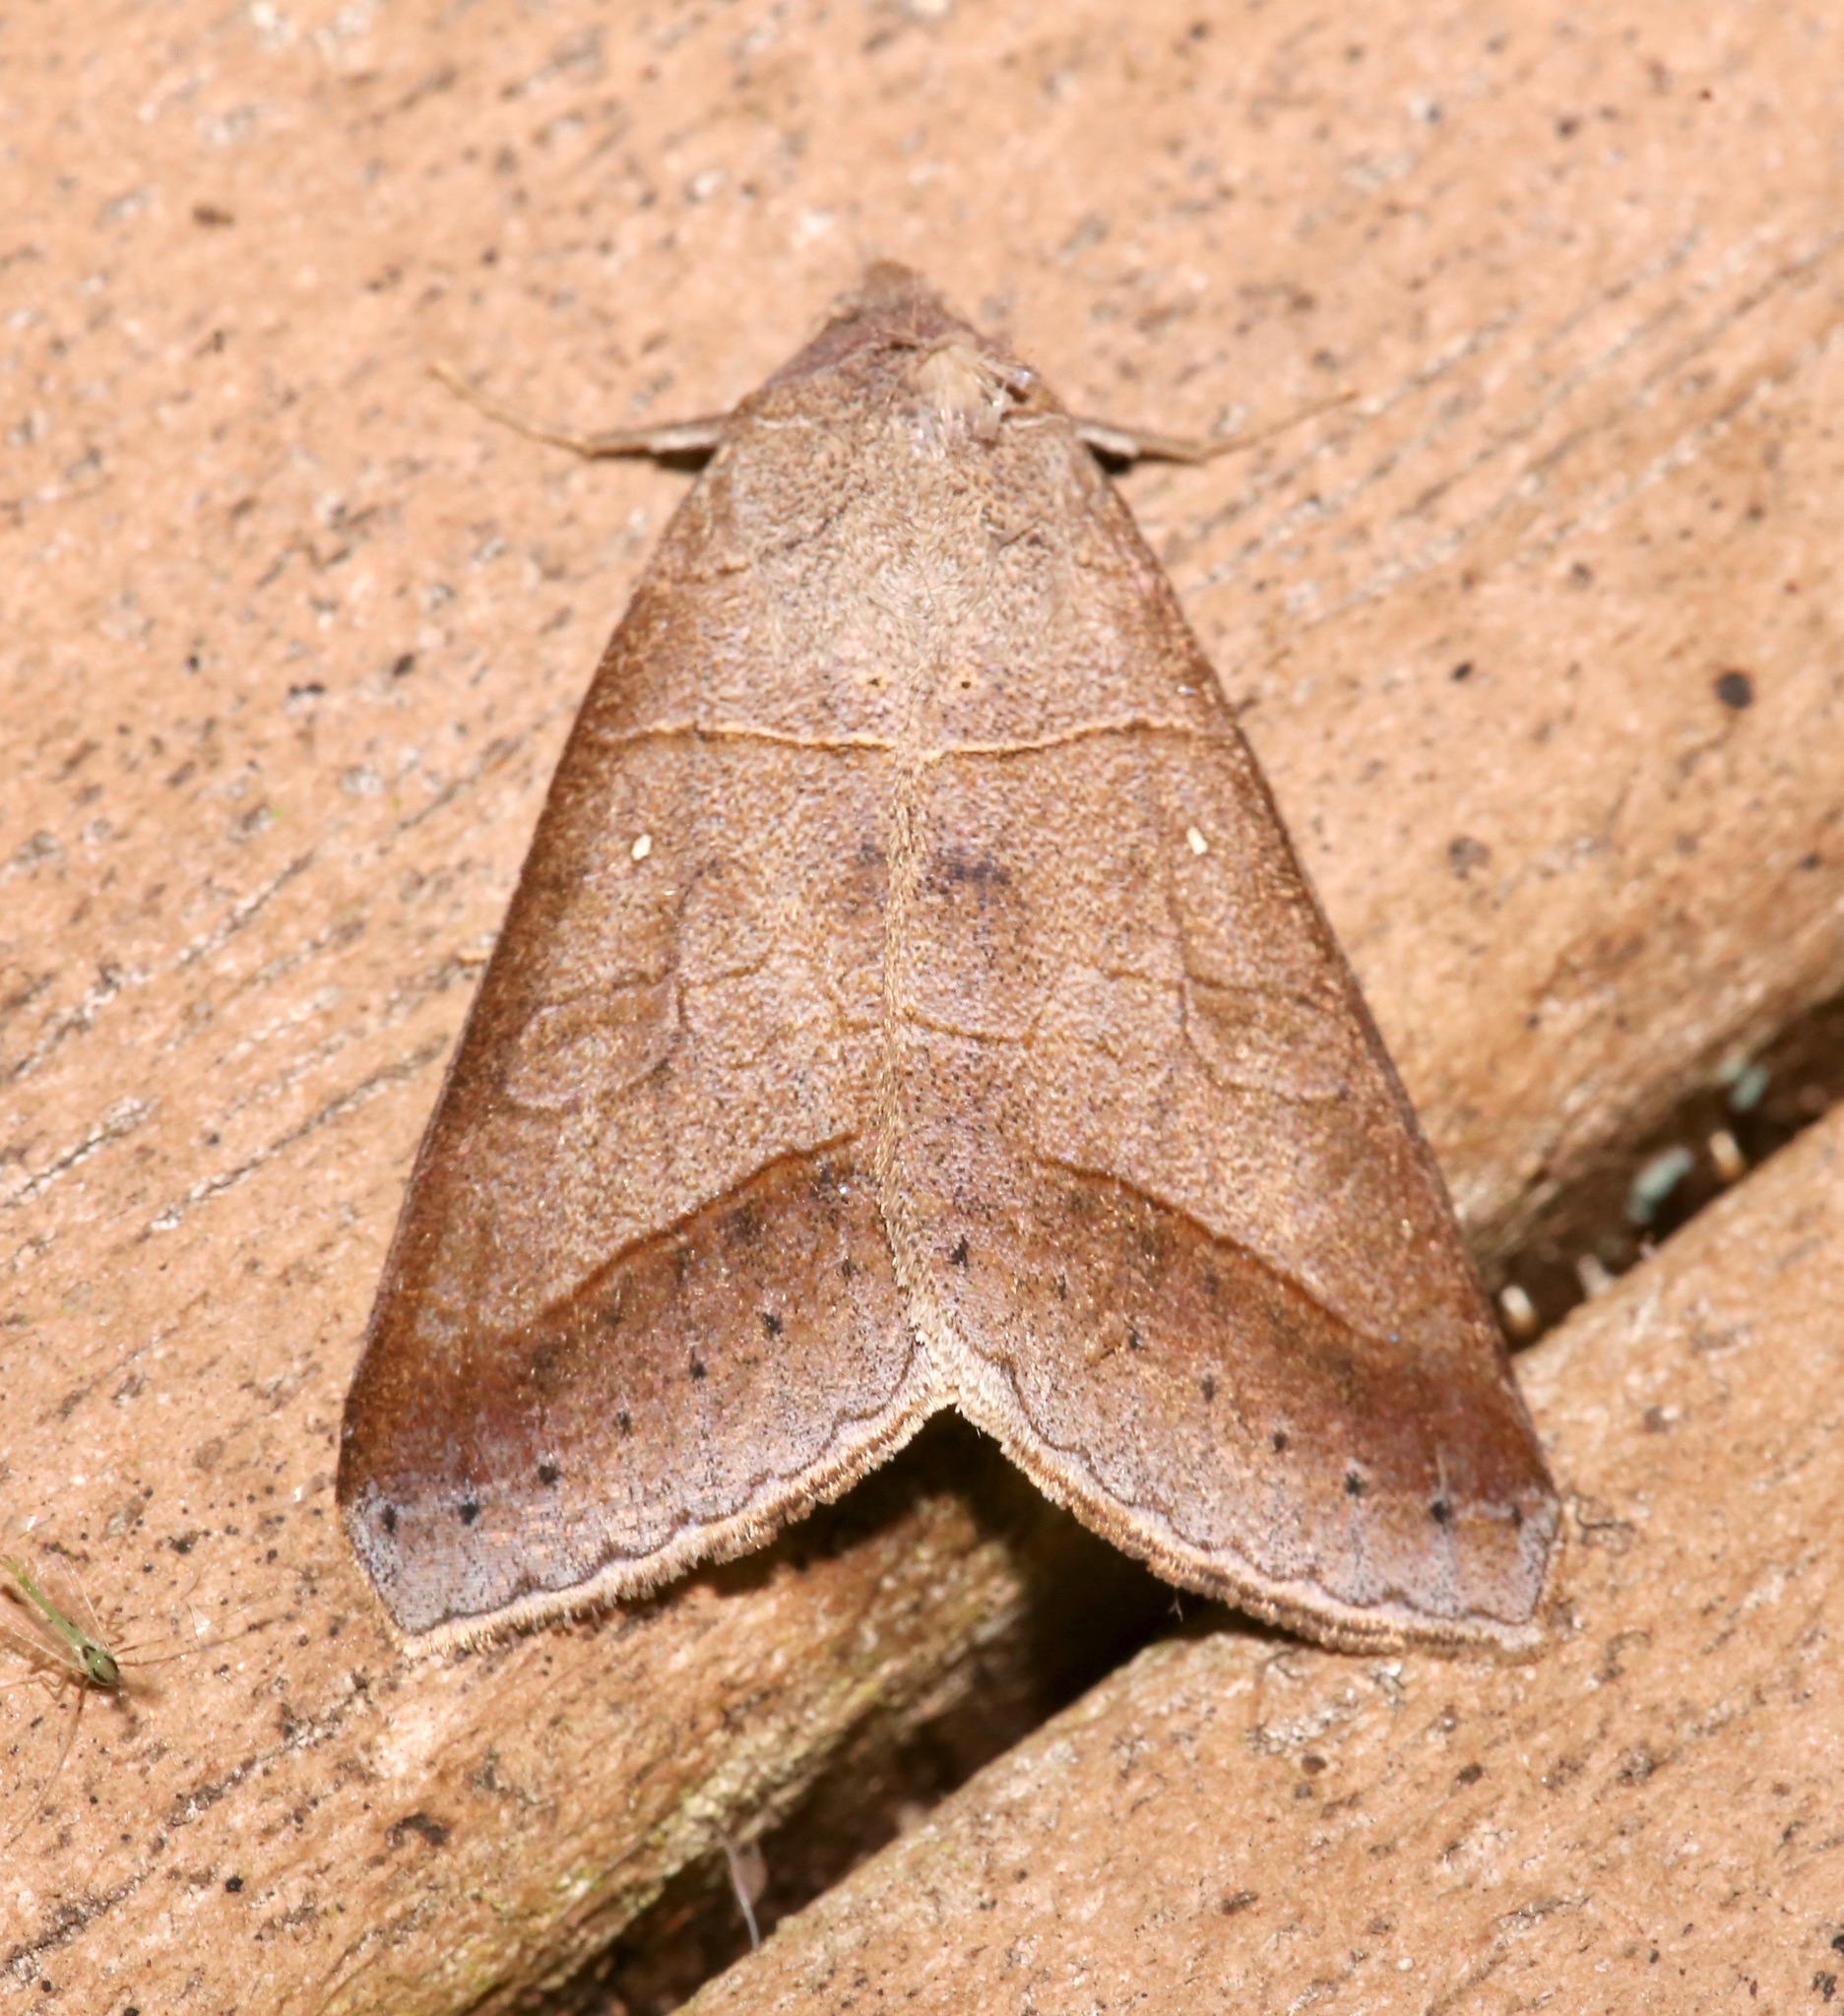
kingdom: Animalia
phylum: Arthropoda
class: Insecta
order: Lepidoptera
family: Erebidae
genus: Mocis
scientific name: Mocis marcida
